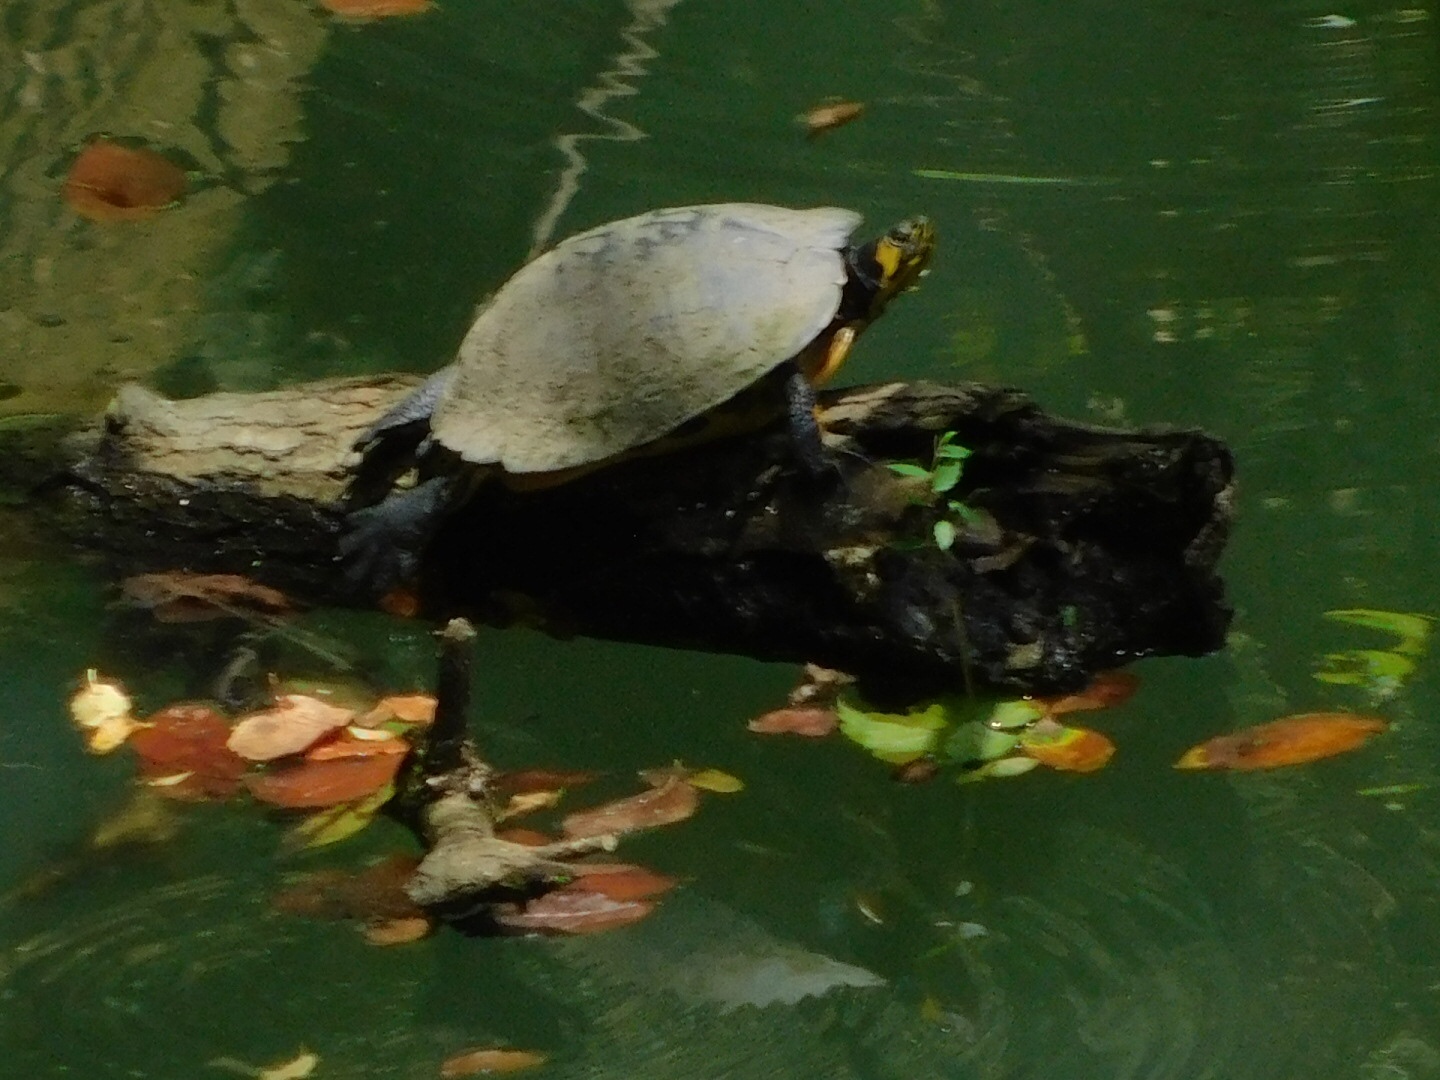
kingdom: Animalia
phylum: Chordata
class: Testudines
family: Emydidae
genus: Trachemys
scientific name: Trachemys scripta
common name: Slider
